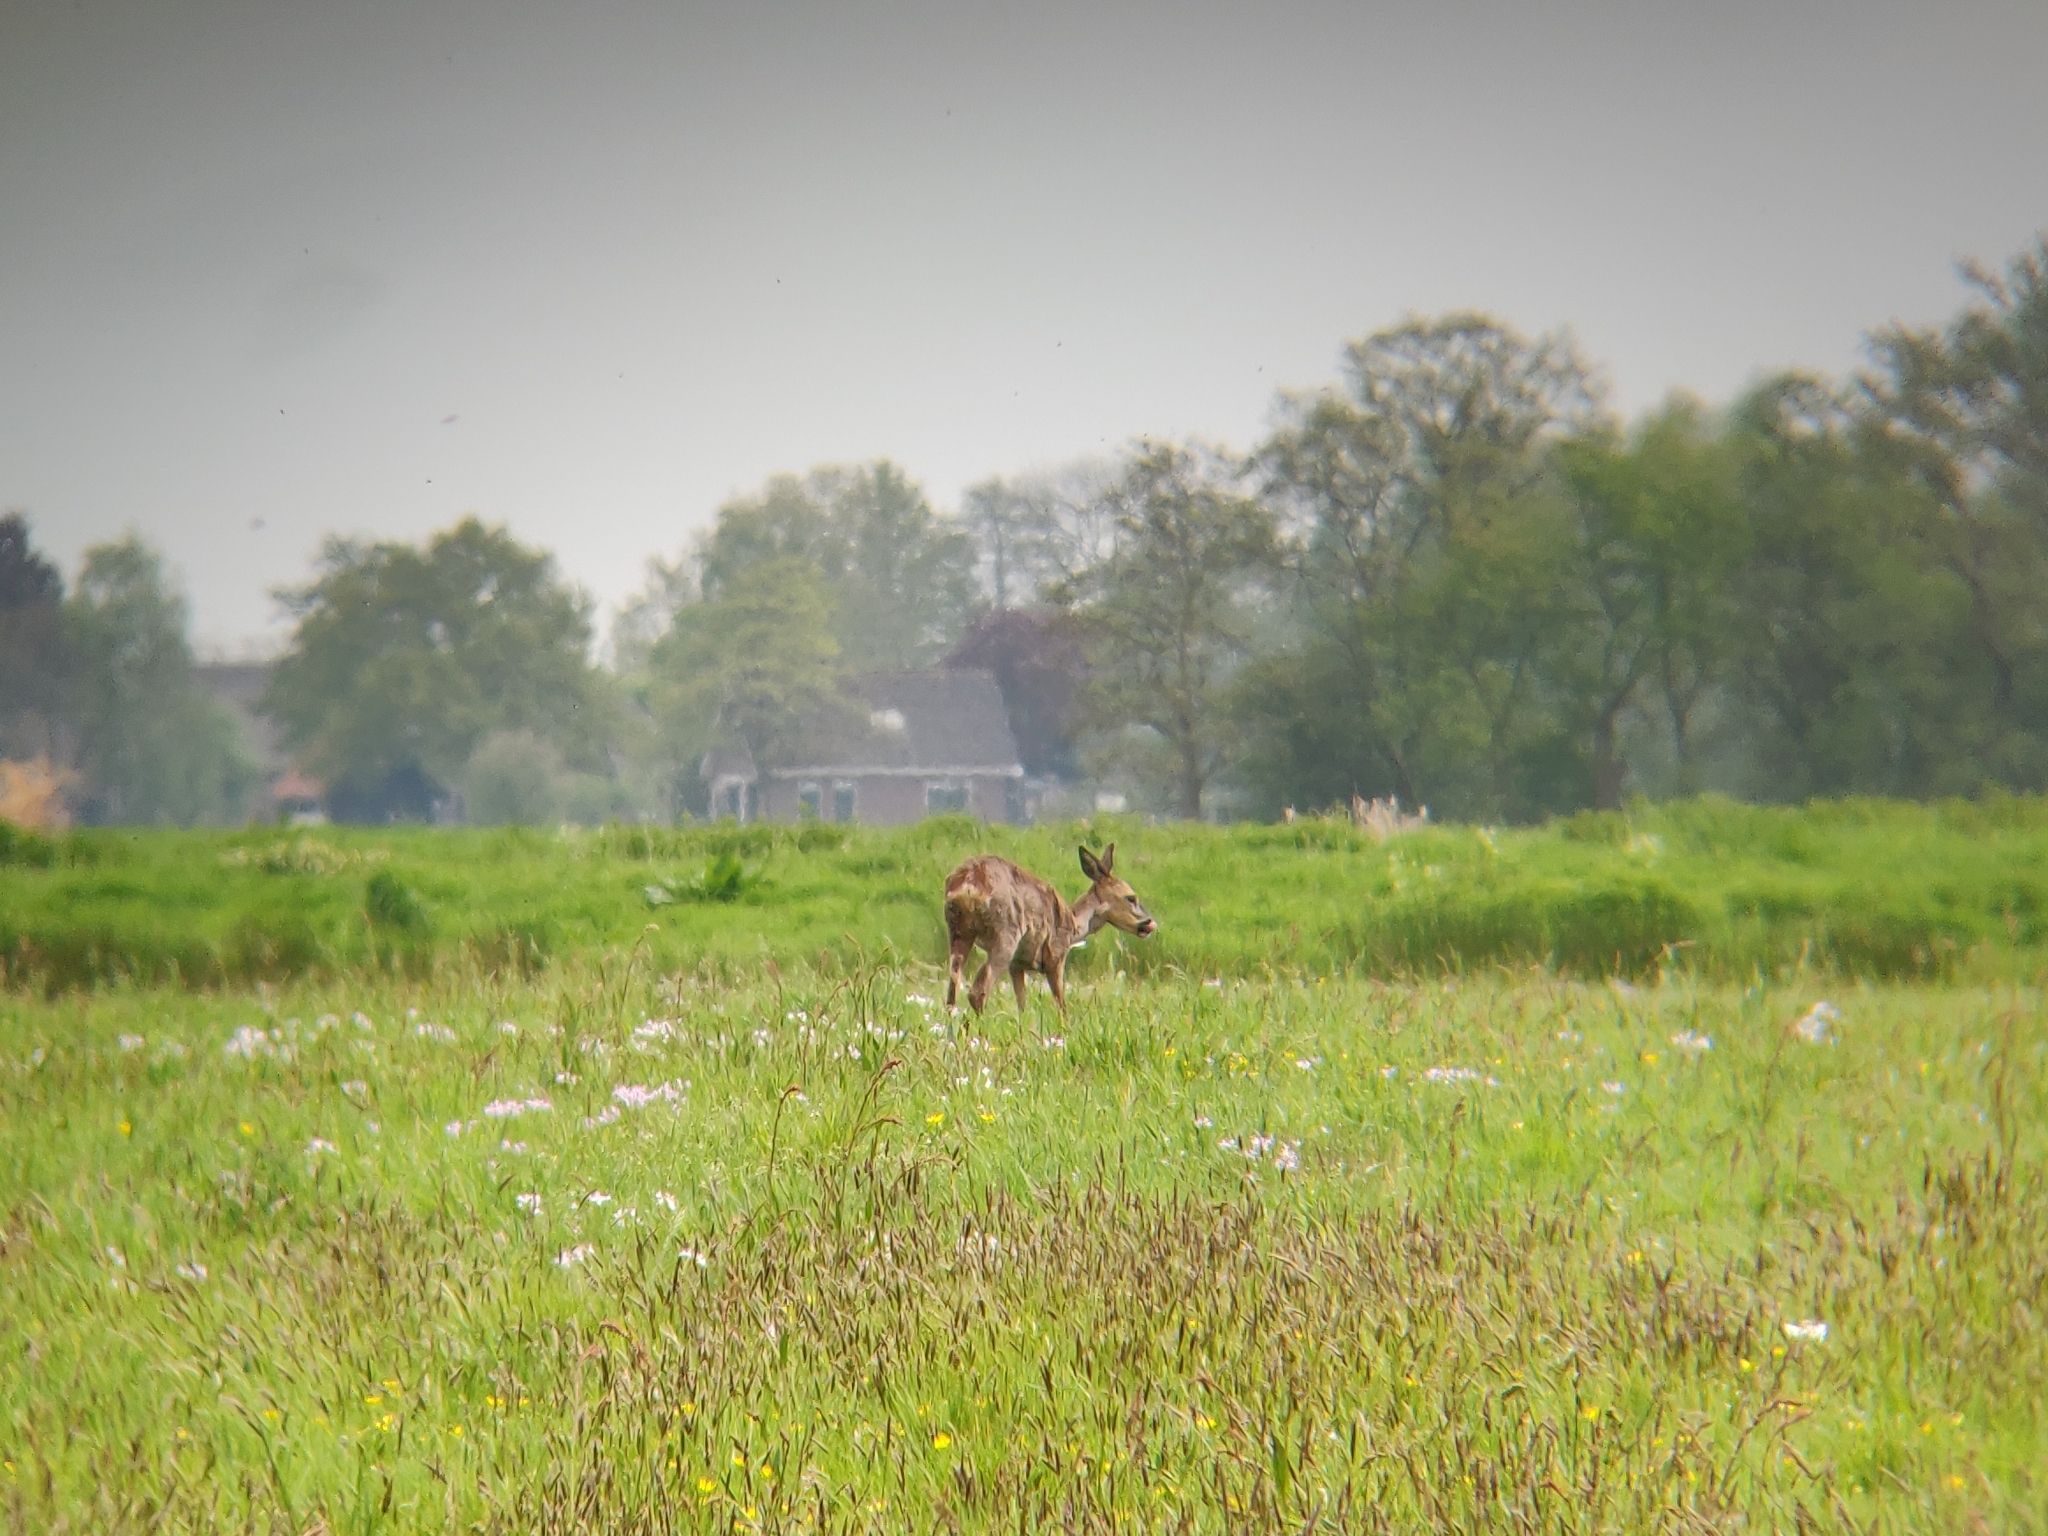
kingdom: Animalia
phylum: Chordata
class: Mammalia
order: Artiodactyla
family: Cervidae
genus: Capreolus
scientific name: Capreolus capreolus
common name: Western roe deer
